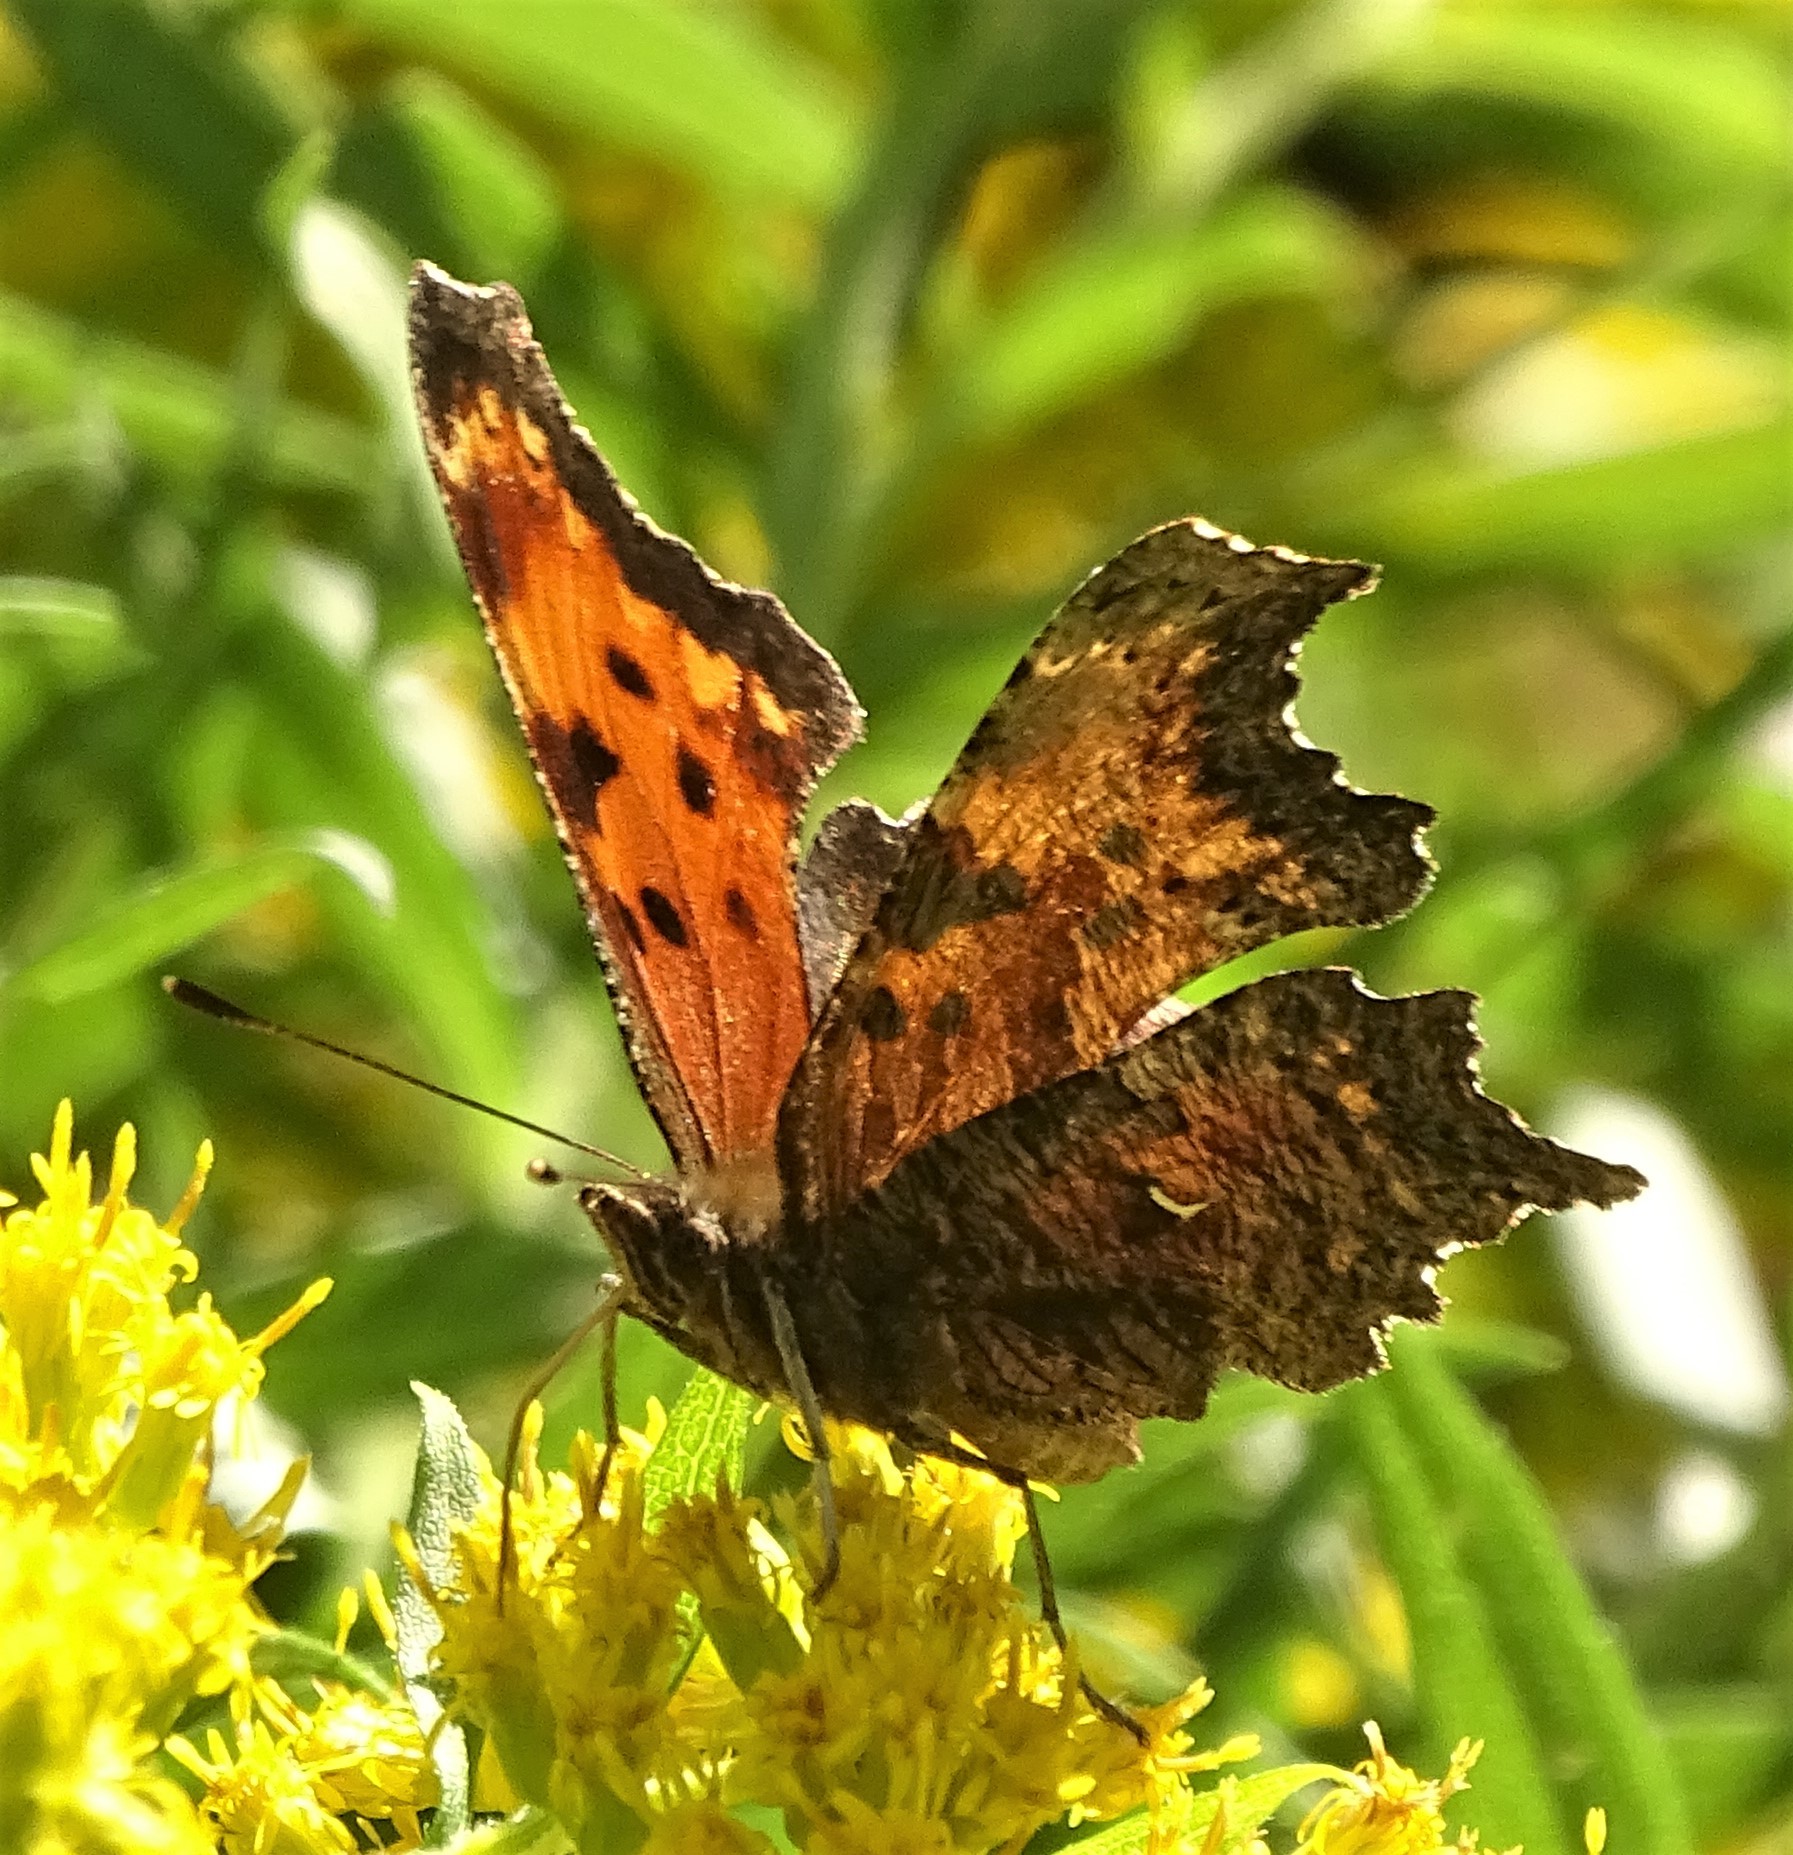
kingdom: Animalia
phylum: Arthropoda
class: Insecta
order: Lepidoptera
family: Nymphalidae
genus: Polygonia
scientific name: Polygonia comma
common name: Eastern comma
